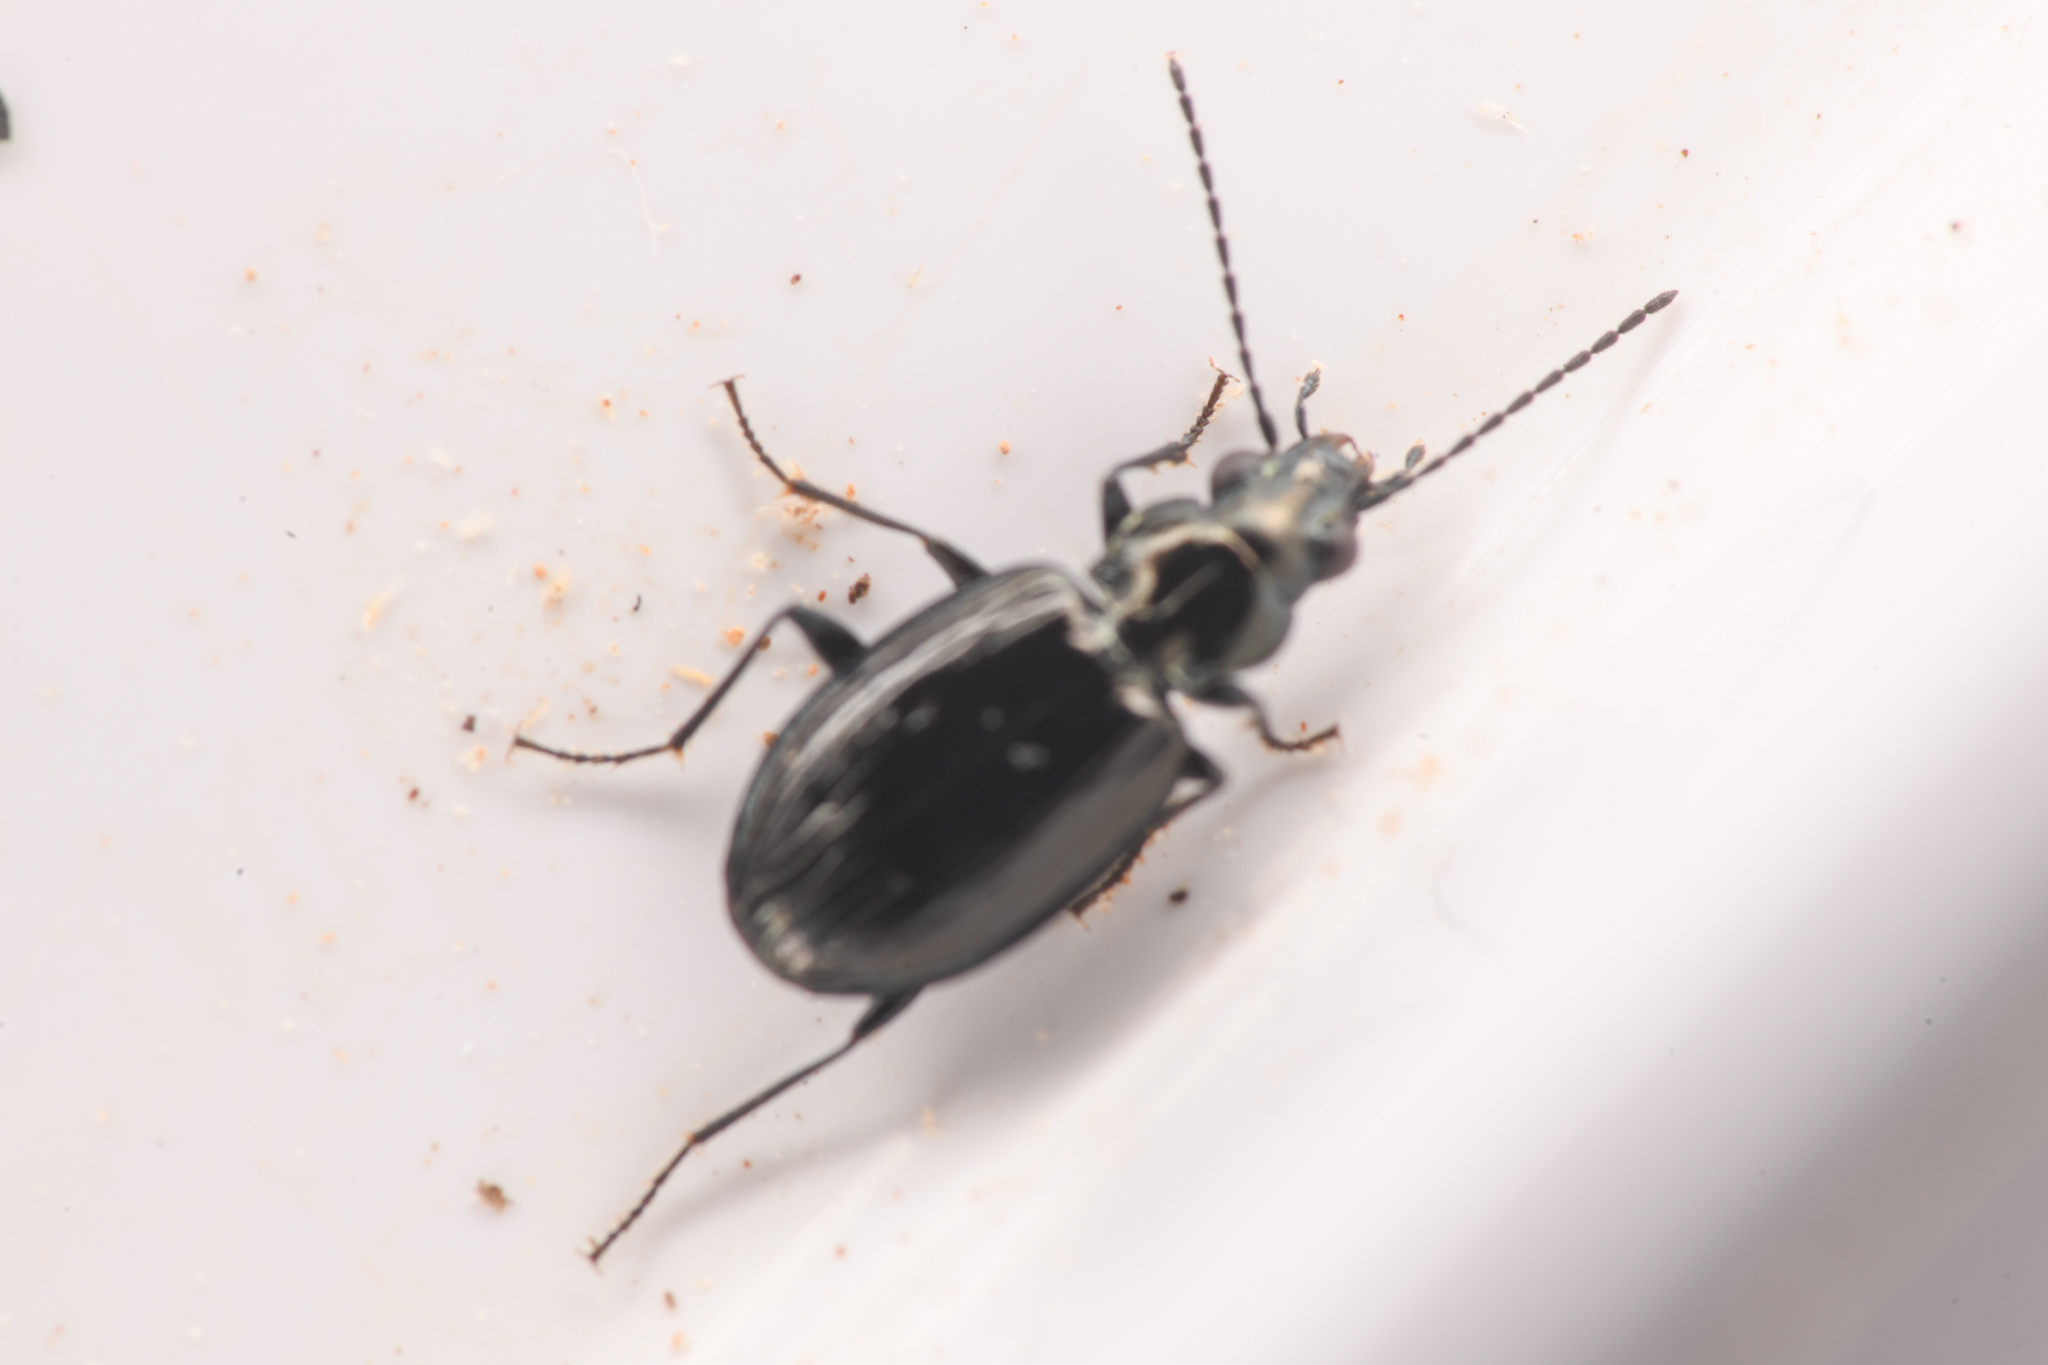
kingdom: Animalia
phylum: Arthropoda
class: Insecta
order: Coleoptera
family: Carabidae
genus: Bembidion
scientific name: Bembidion haruspex
